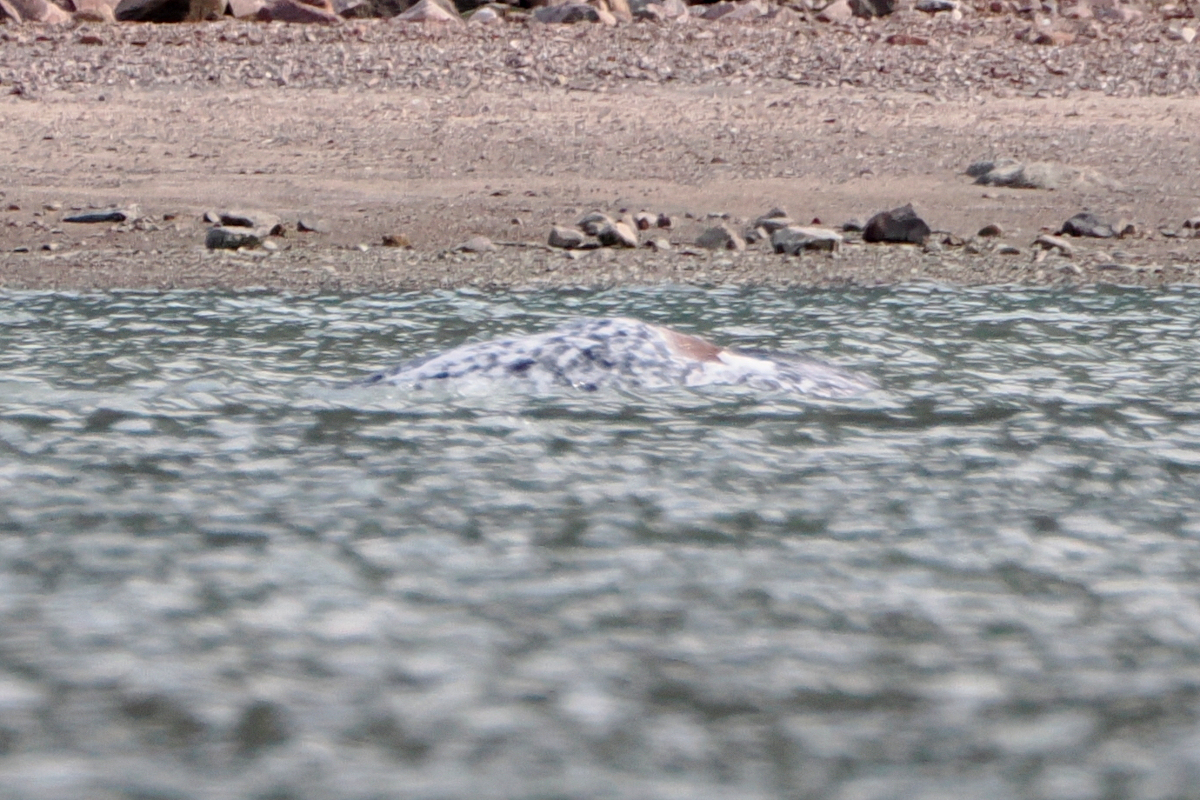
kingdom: Animalia
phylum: Chordata
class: Mammalia
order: Cetacea
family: Monodontidae
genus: Monodon
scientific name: Monodon monoceros
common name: Narwhal
